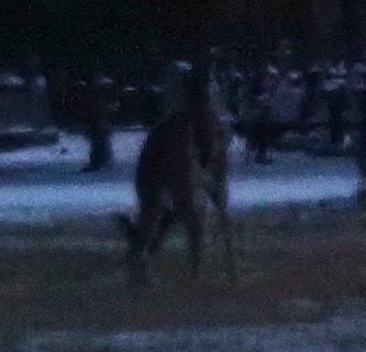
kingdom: Animalia
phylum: Chordata
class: Mammalia
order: Artiodactyla
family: Cervidae
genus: Odocoileus
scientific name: Odocoileus virginianus
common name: White-tailed deer
